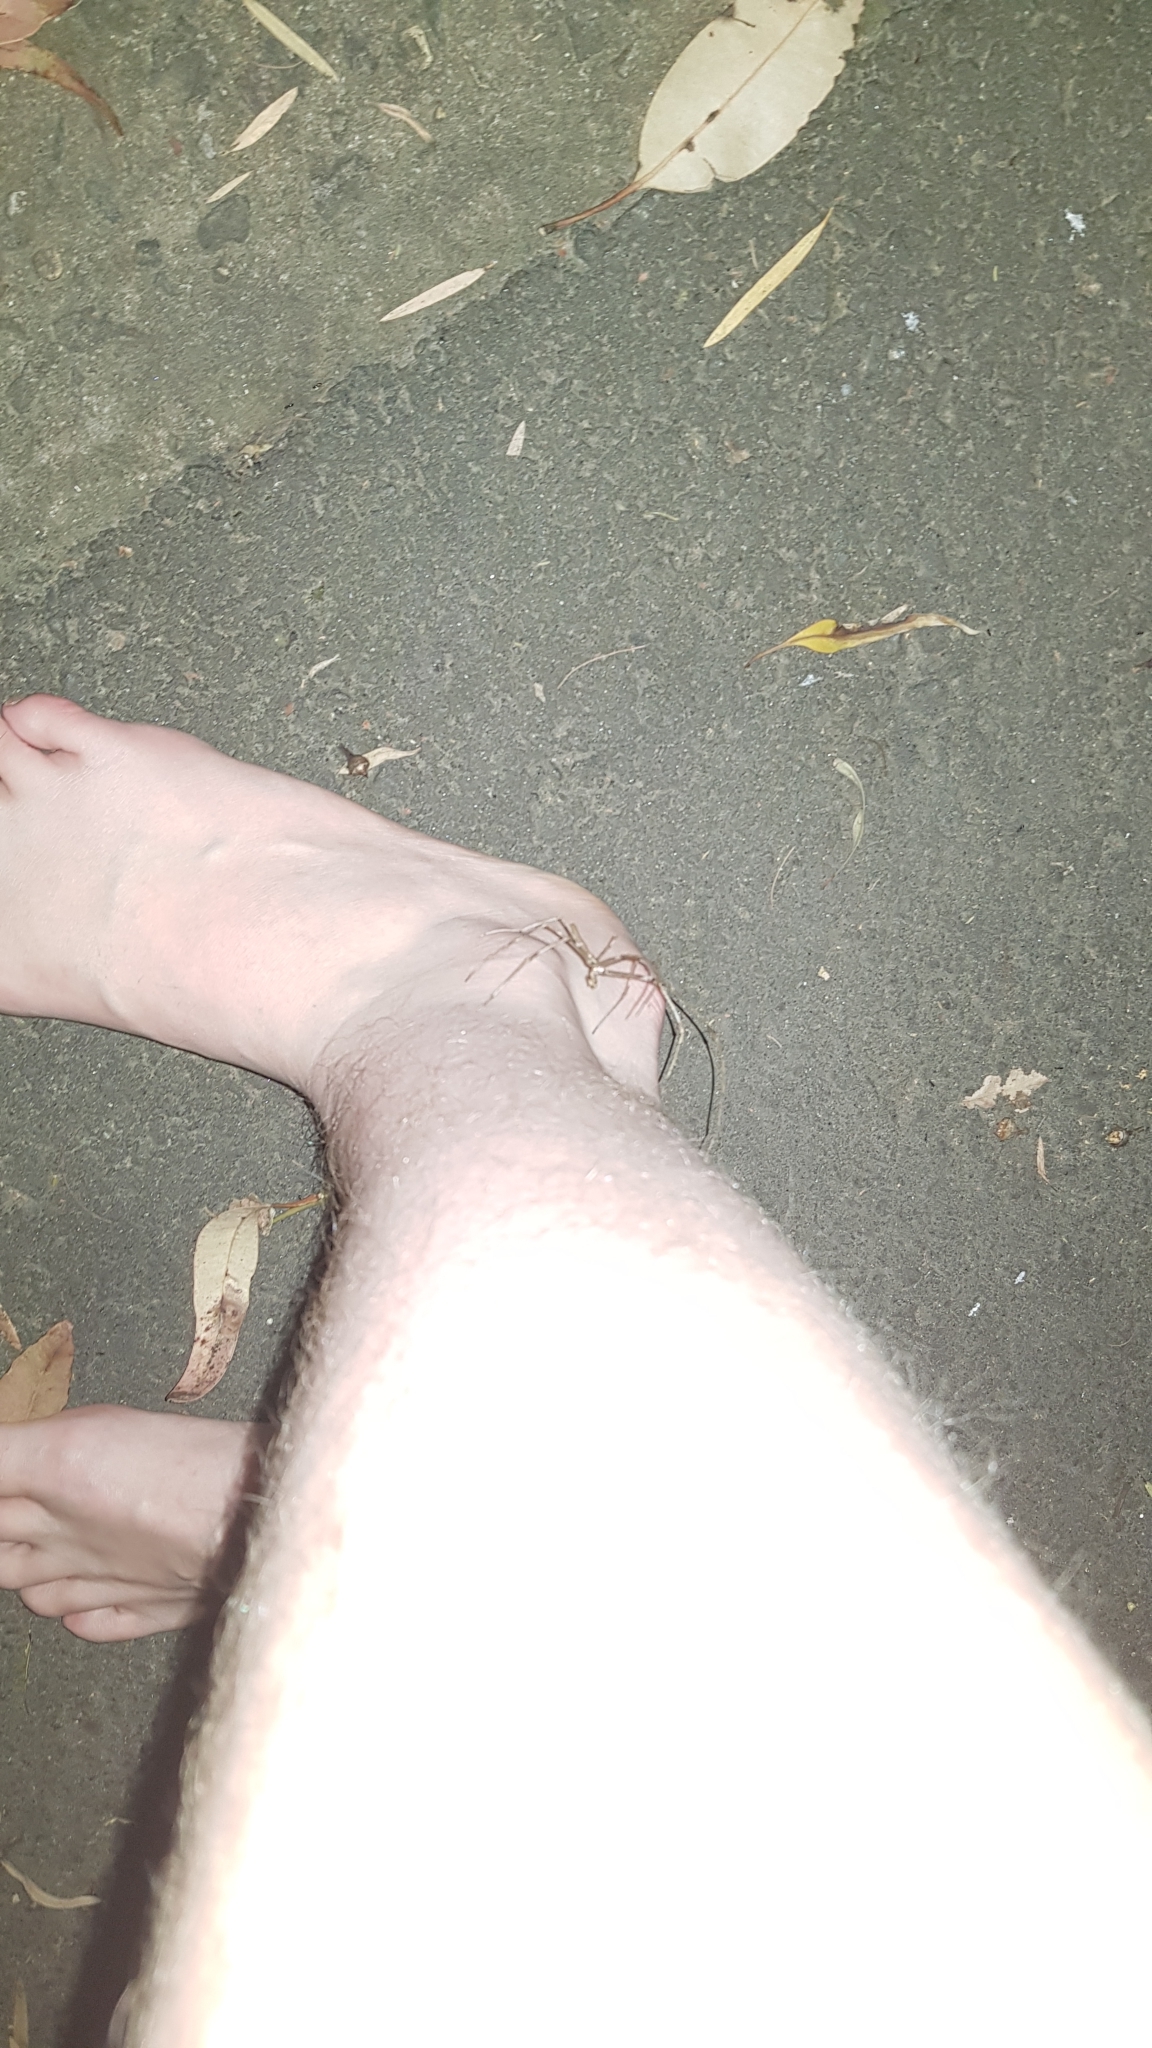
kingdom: Animalia
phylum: Arthropoda
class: Arachnida
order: Araneae
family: Deinopidae
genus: Deinopis
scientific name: Deinopis subrufa
